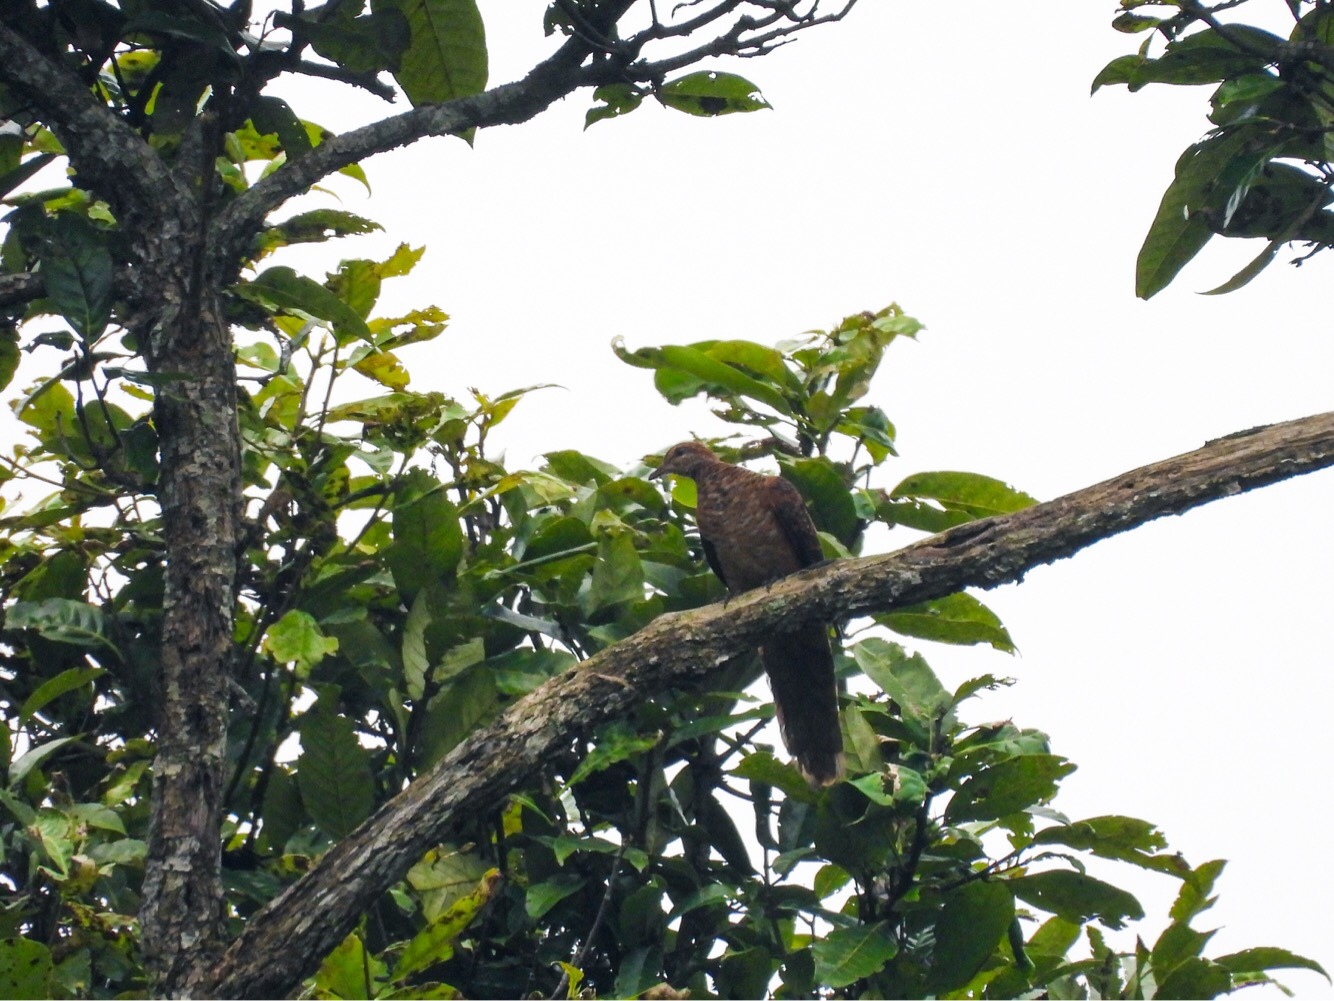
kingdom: Animalia
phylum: Chordata
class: Aves
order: Columbiformes
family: Columbidae
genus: Macropygia
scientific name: Macropygia ruficeps
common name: Little cuckoo-dove
